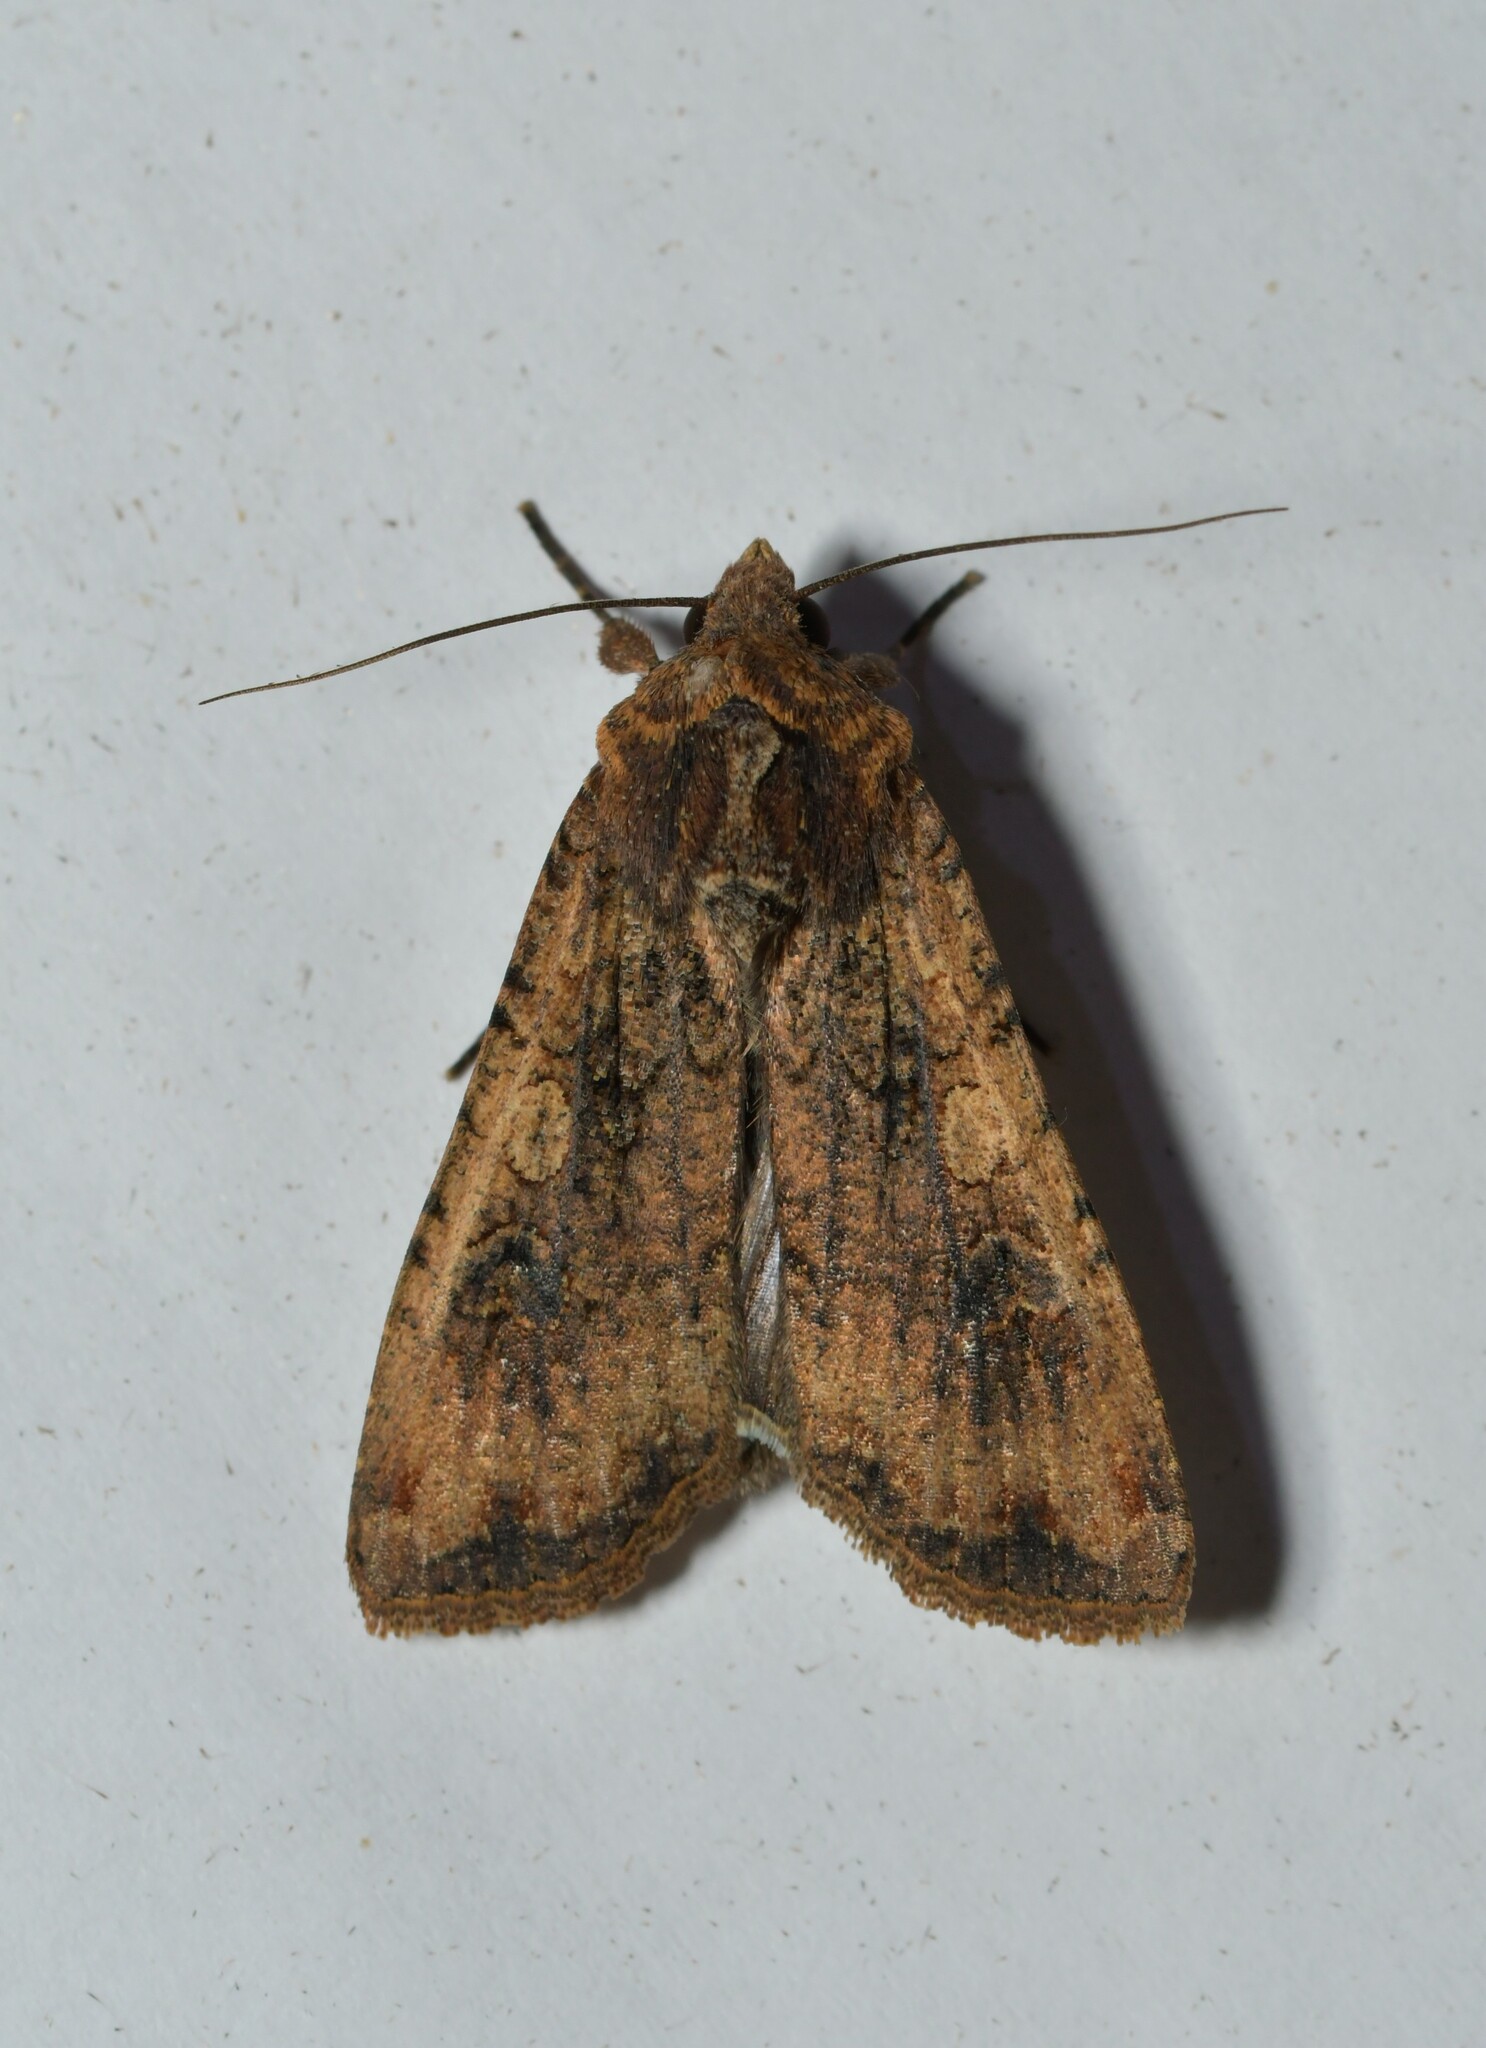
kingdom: Animalia
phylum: Arthropoda
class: Insecta
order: Lepidoptera
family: Noctuidae
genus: Peridroma
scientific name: Peridroma saucia
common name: Pearly underwing
